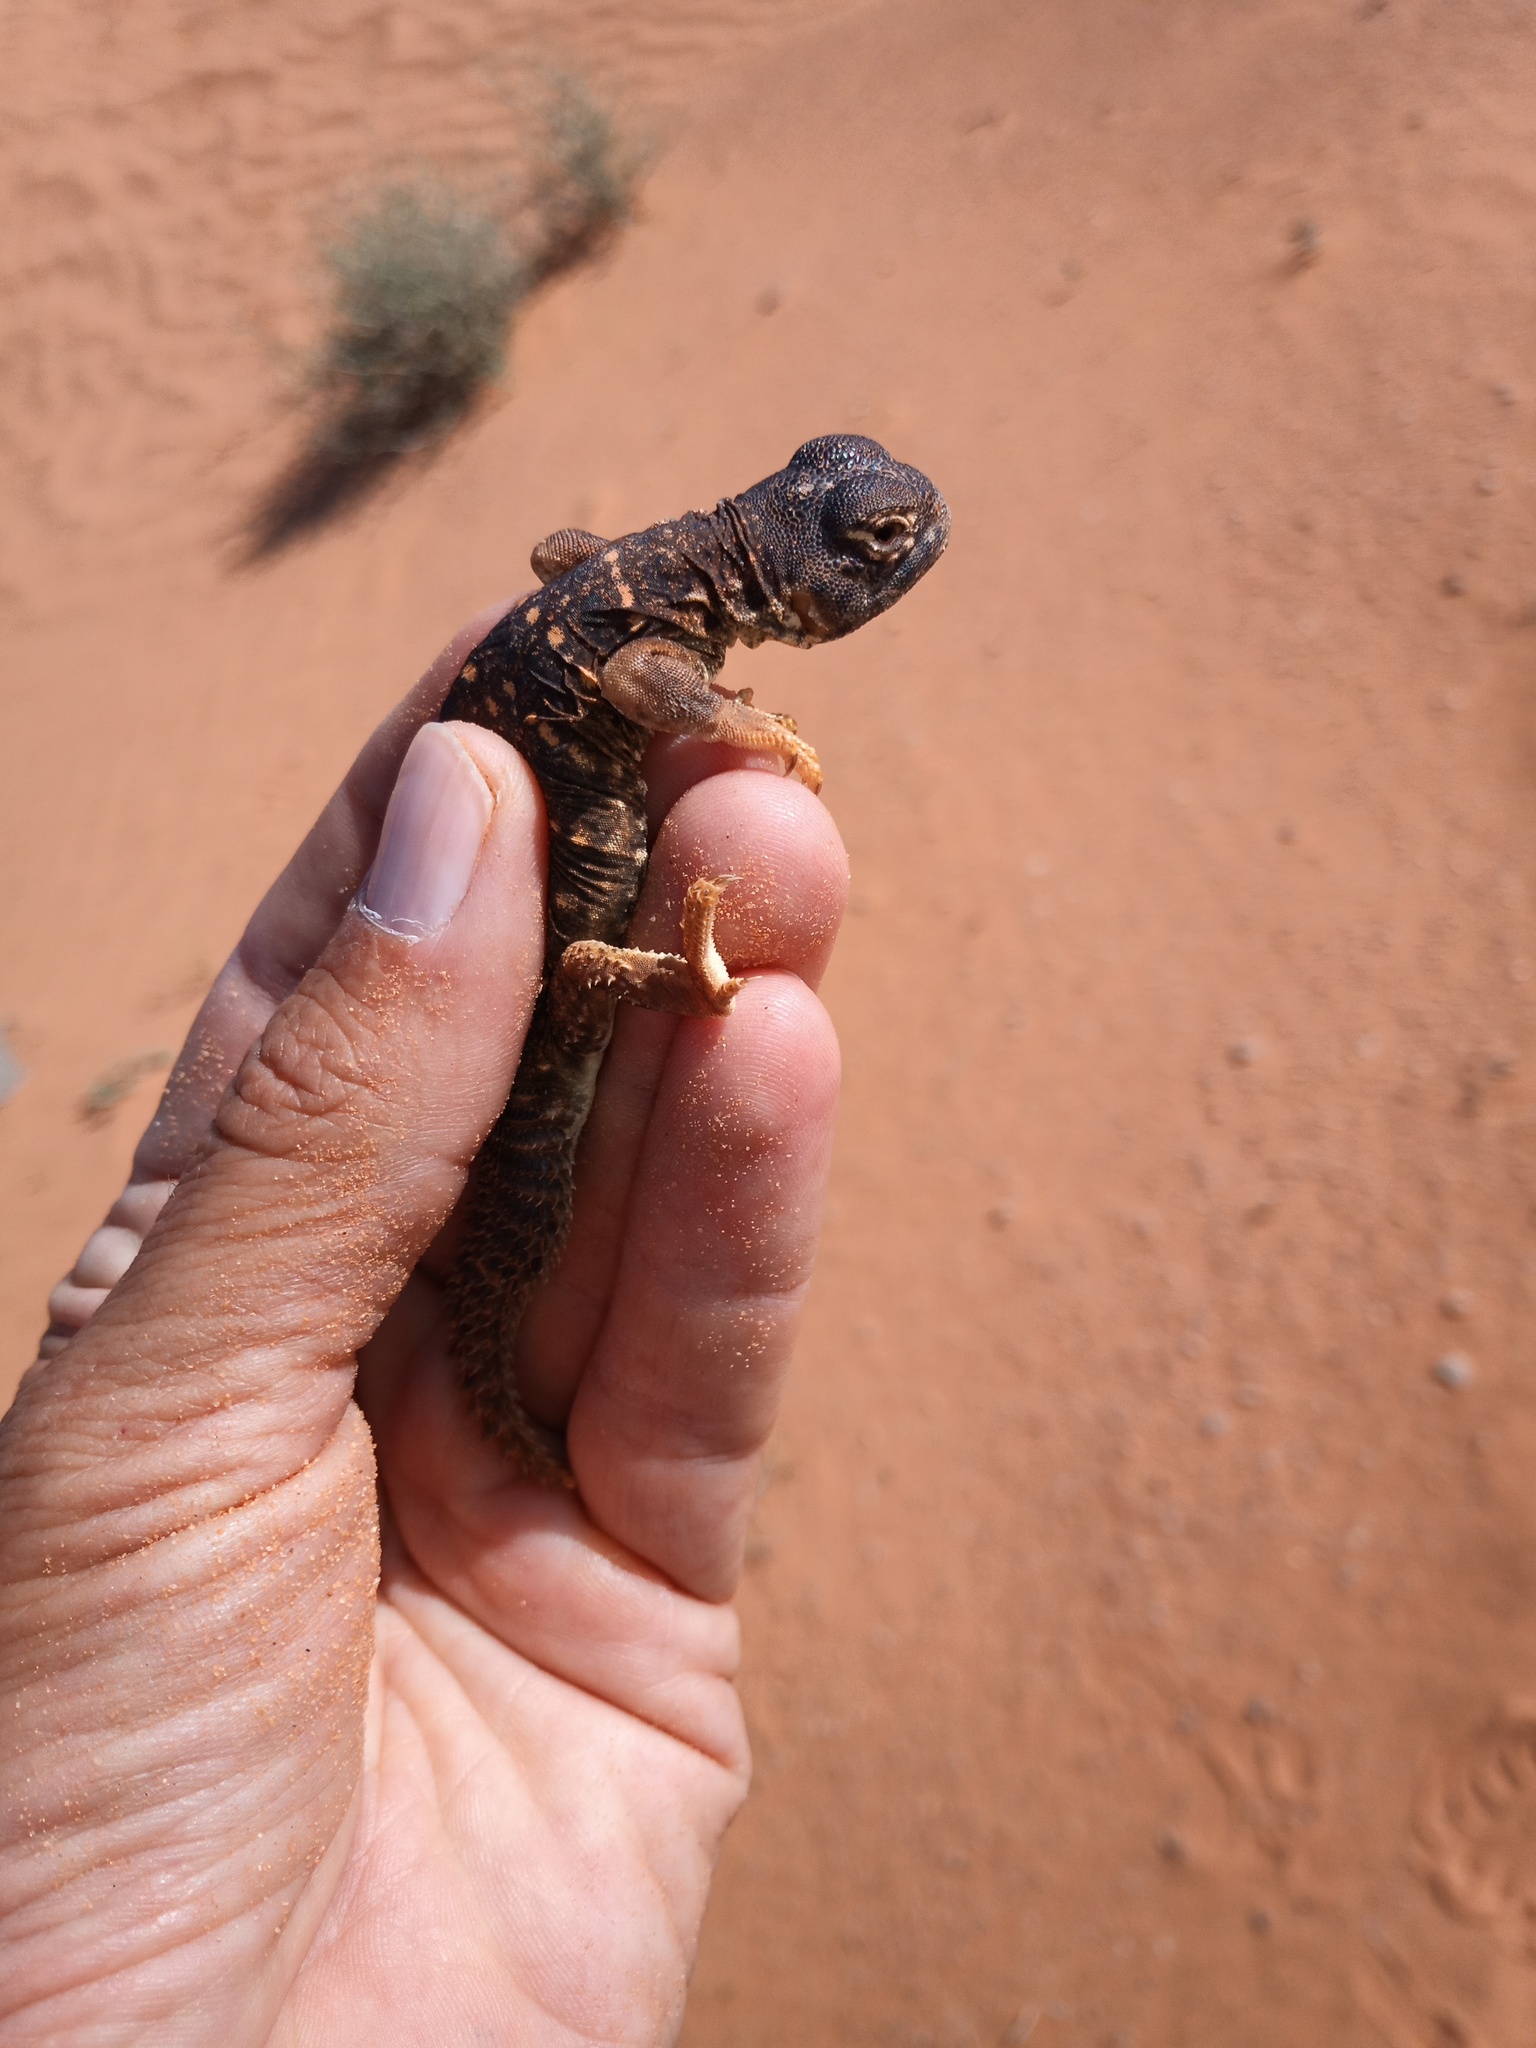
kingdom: Animalia
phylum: Chordata
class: Squamata
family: Agamidae
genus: Uromastyx
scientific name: Uromastyx aegyptia
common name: Egyptian mastigure
